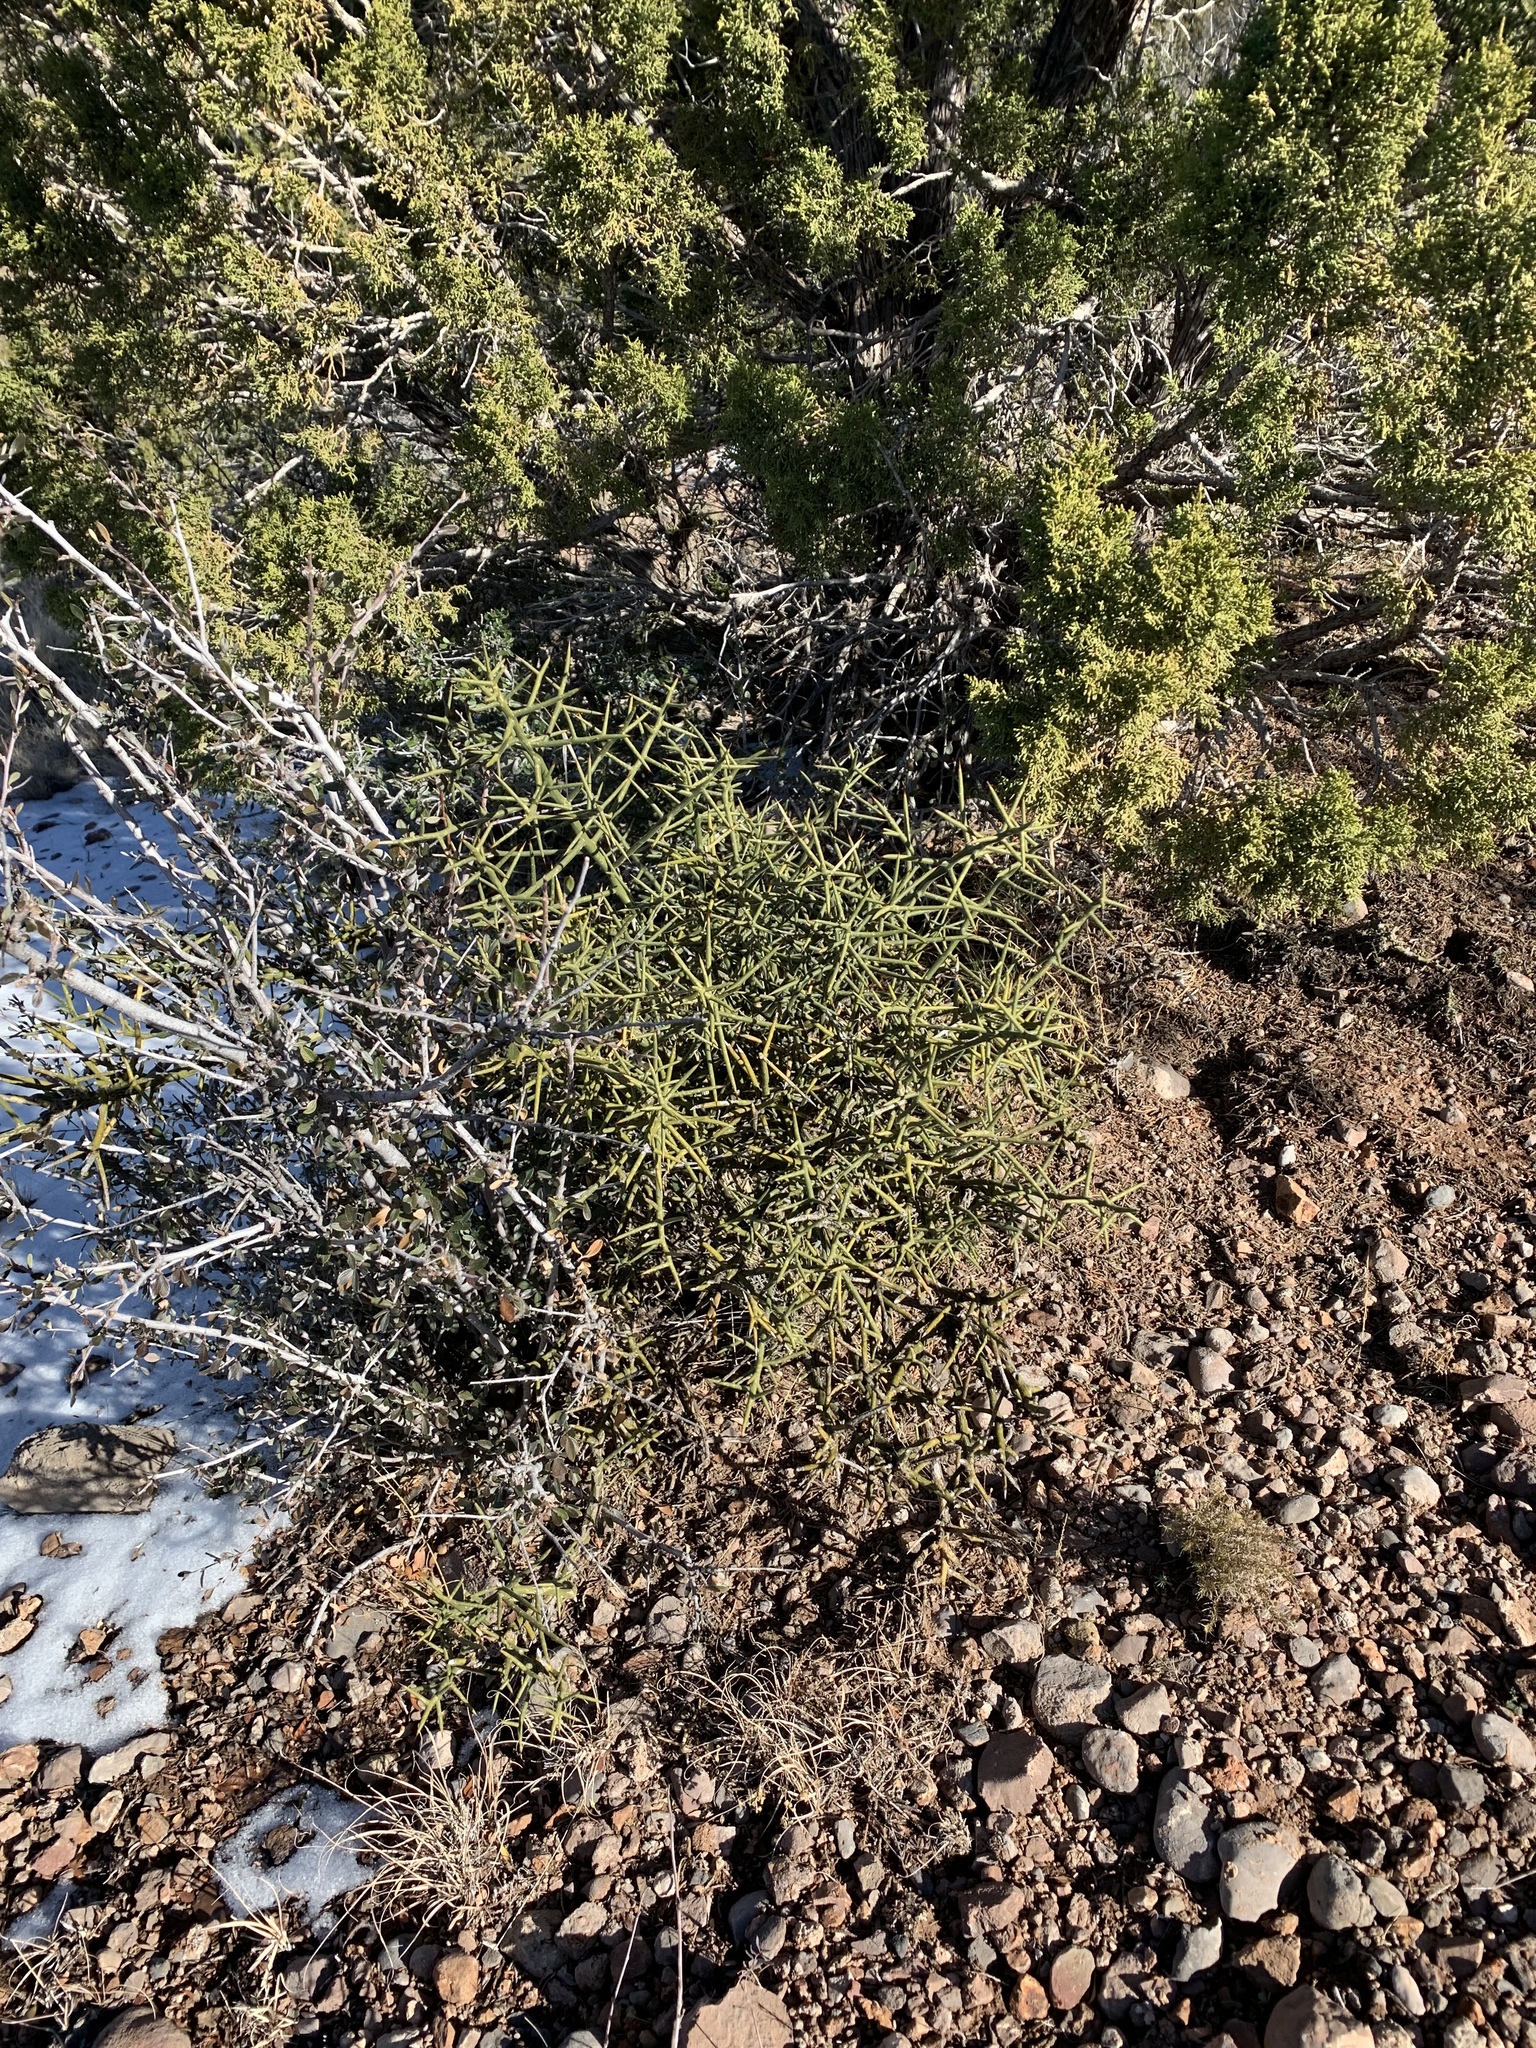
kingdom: Plantae
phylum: Tracheophyta
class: Magnoliopsida
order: Brassicales
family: Koeberliniaceae
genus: Koeberlinia
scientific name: Koeberlinia spinosa
